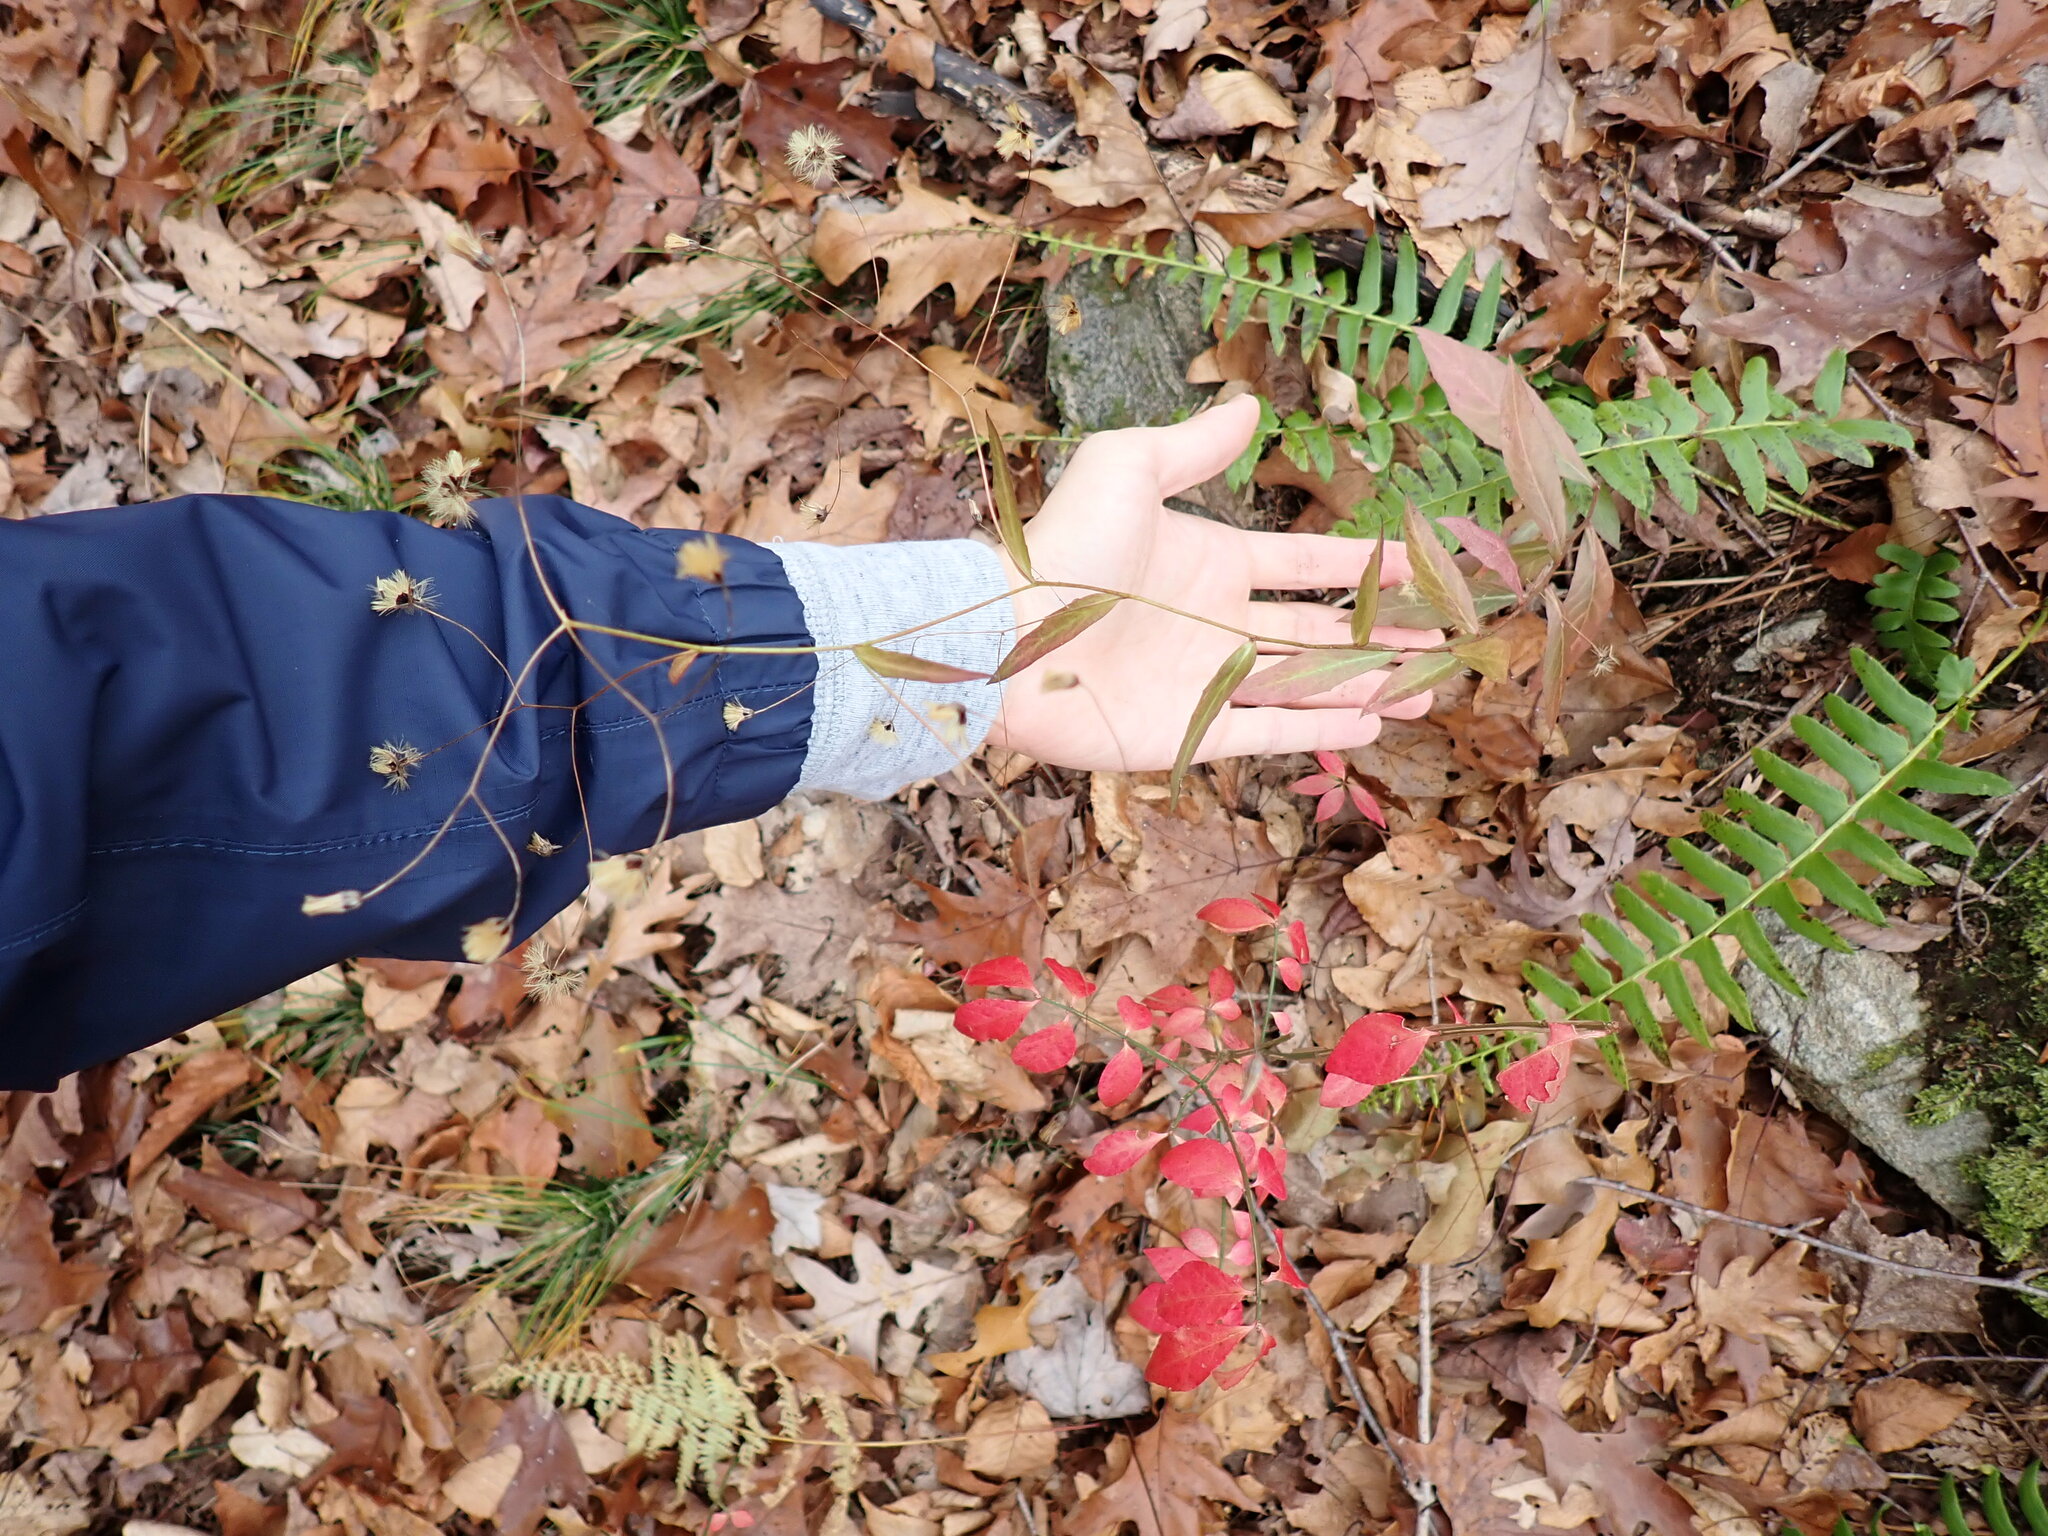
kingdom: Plantae
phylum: Tracheophyta
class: Magnoliopsida
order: Asterales
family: Asteraceae
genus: Hieracium
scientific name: Hieracium paniculatum
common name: Allegheny hawkweed
